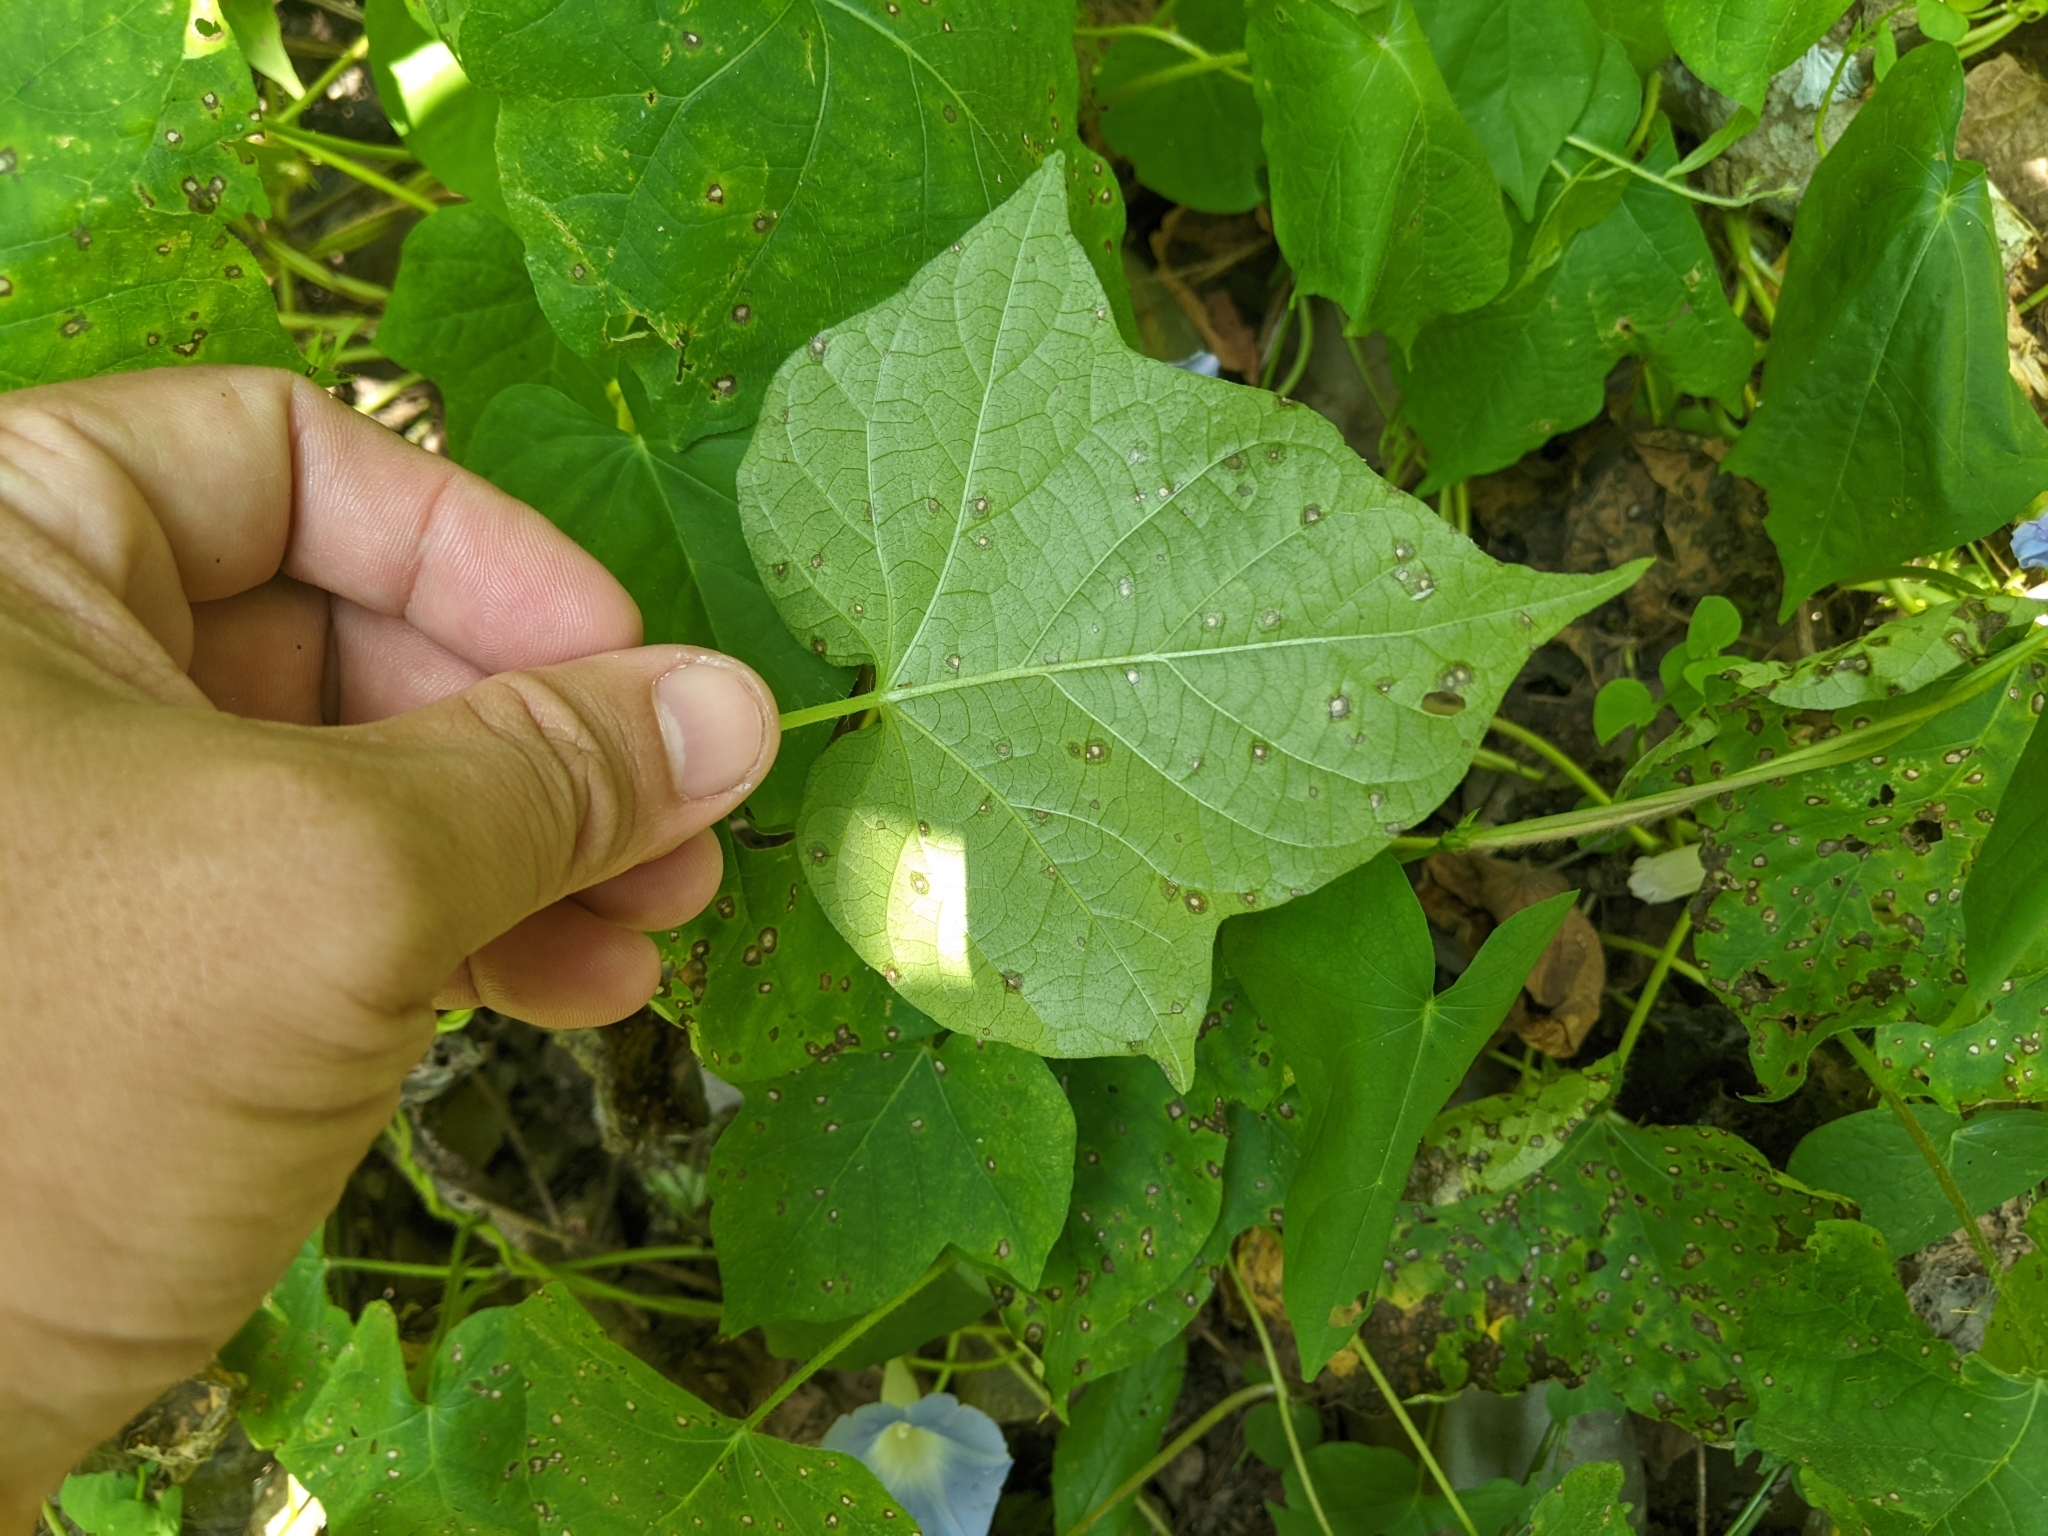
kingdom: Plantae
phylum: Tracheophyta
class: Magnoliopsida
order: Solanales
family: Convolvulaceae
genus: Ipomoea
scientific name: Ipomoea nil
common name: Japanese morning-glory
